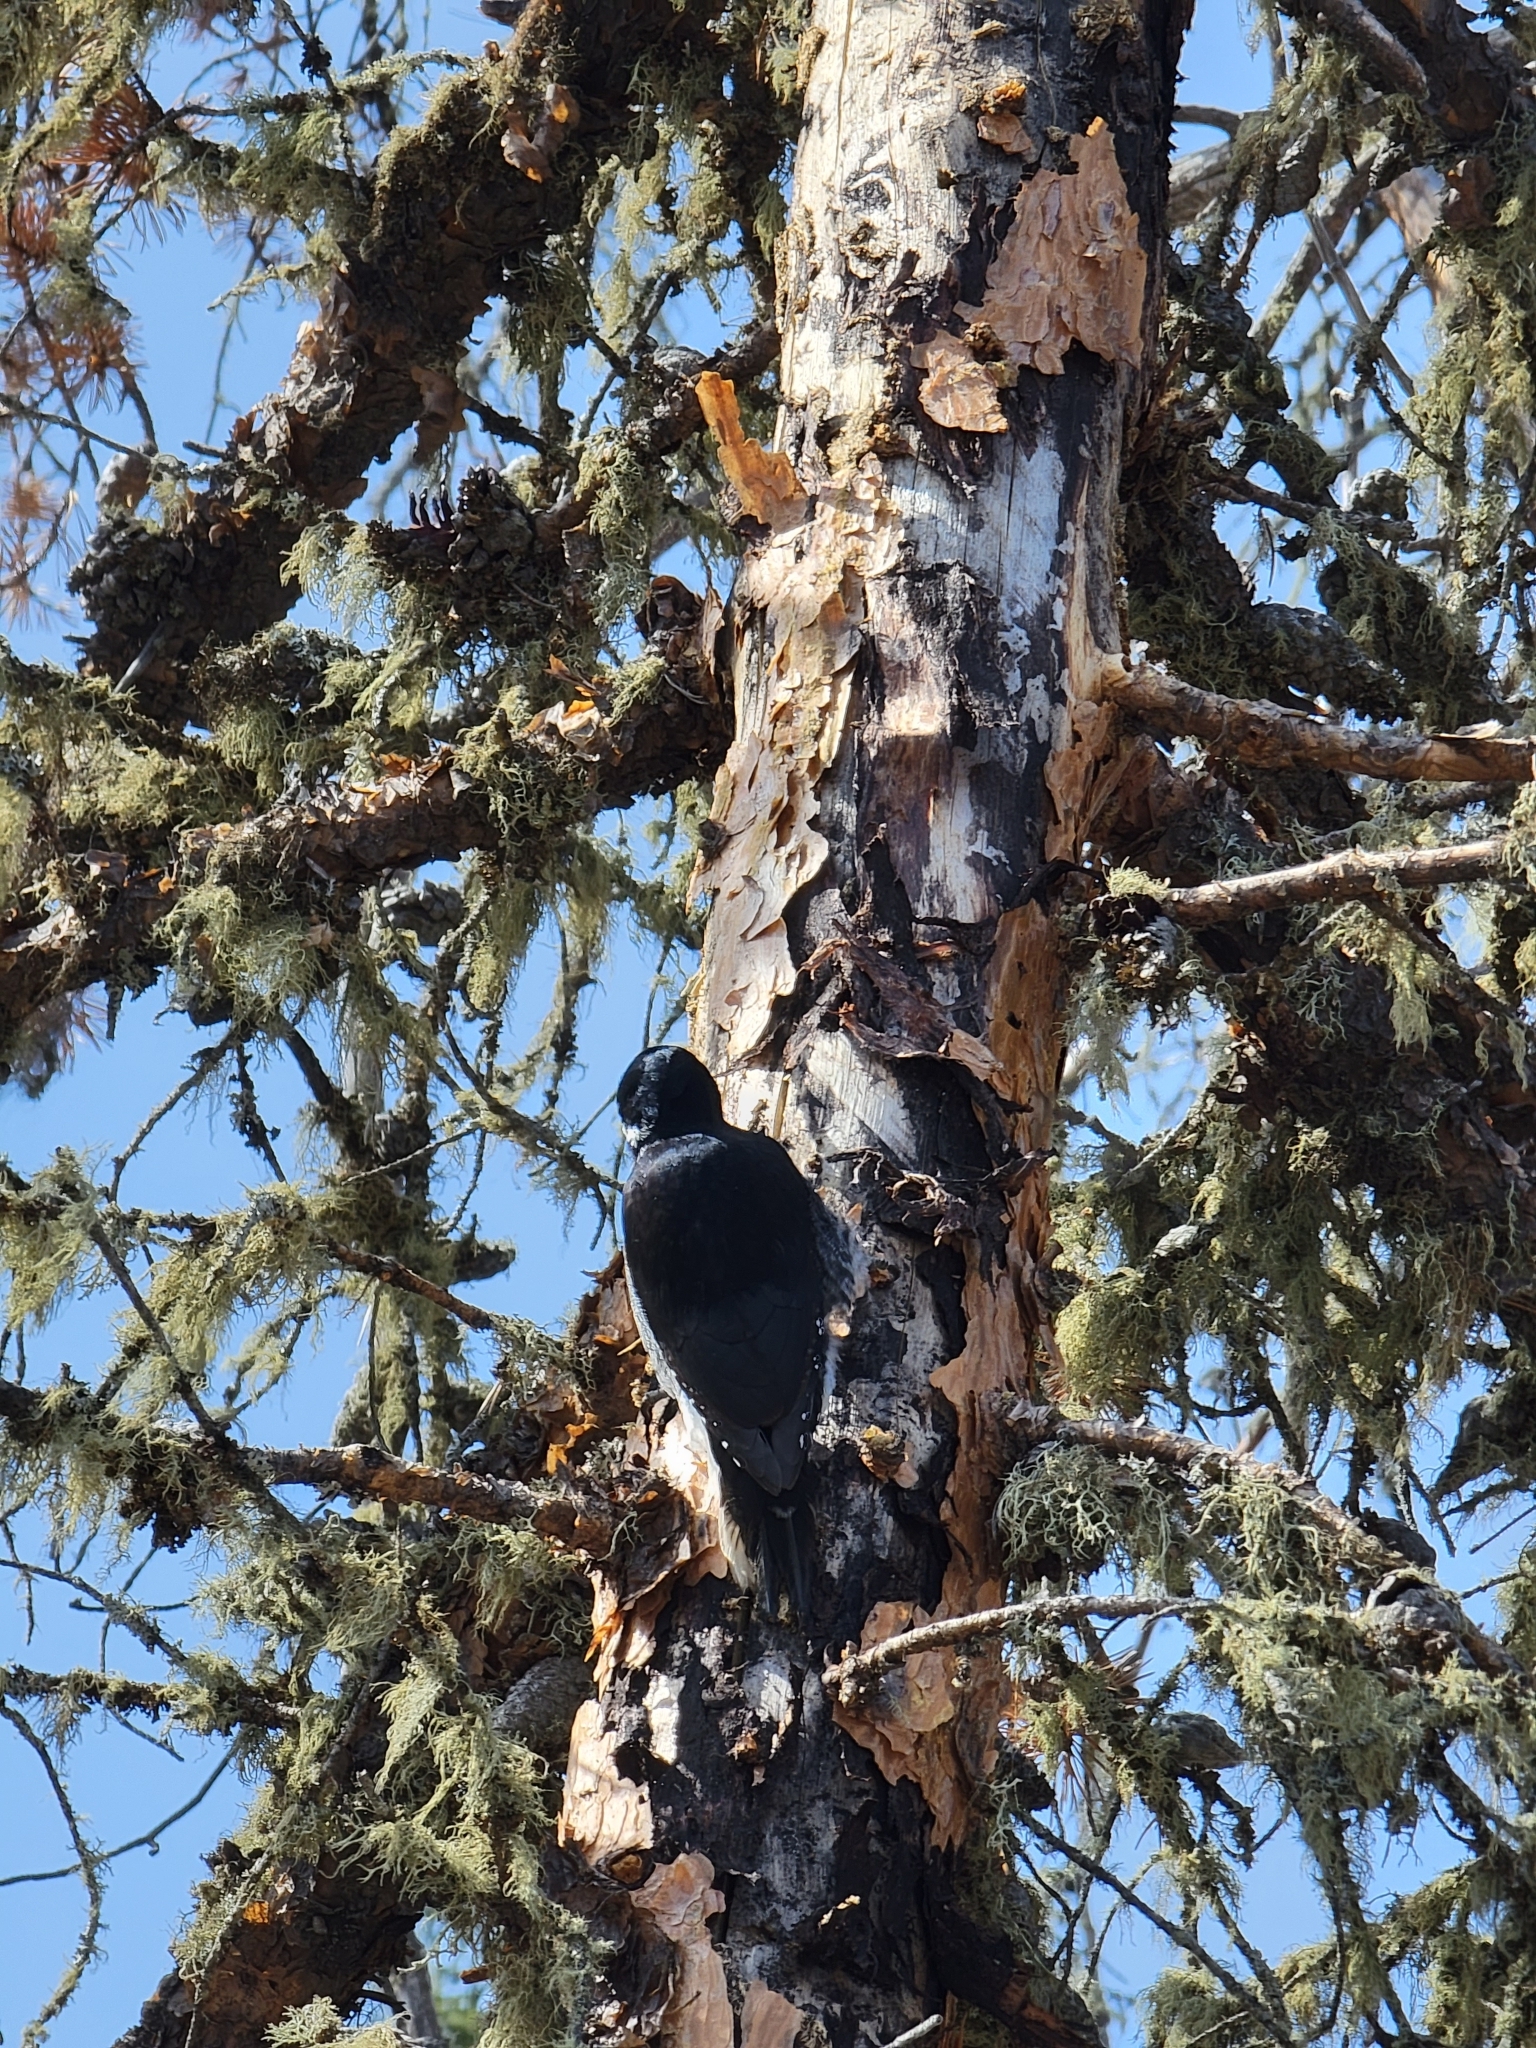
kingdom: Animalia
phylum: Chordata
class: Aves
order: Piciformes
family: Picidae
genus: Picoides
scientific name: Picoides arcticus
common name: Black-backed woodpecker
